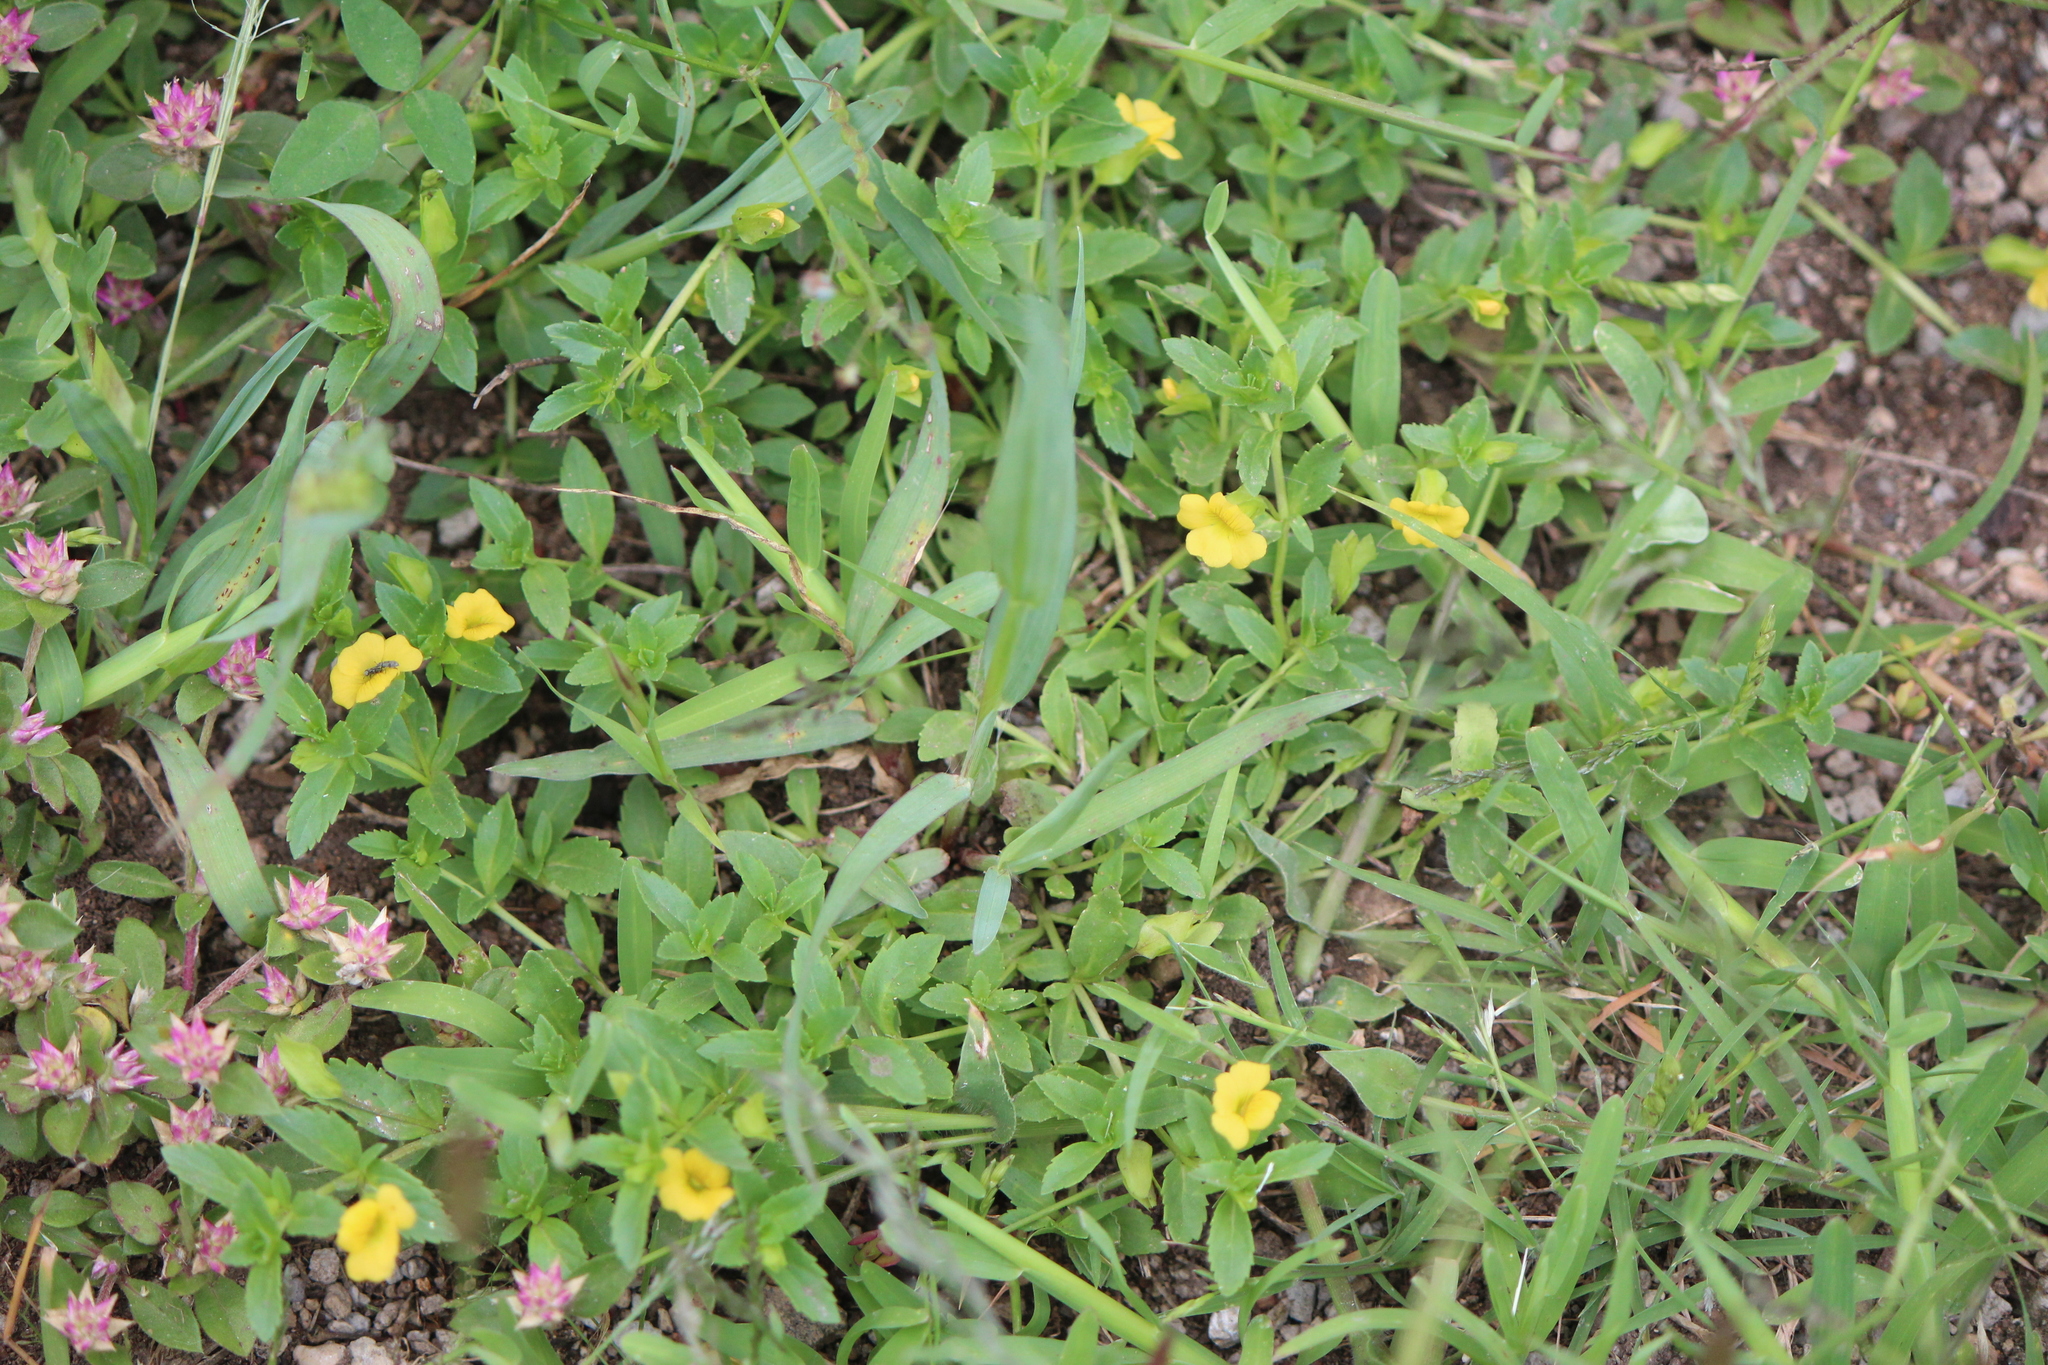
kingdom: Plantae
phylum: Tracheophyta
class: Magnoliopsida
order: Lamiales
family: Plantaginaceae
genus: Mecardonia
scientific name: Mecardonia procumbens
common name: Baby jump-up
